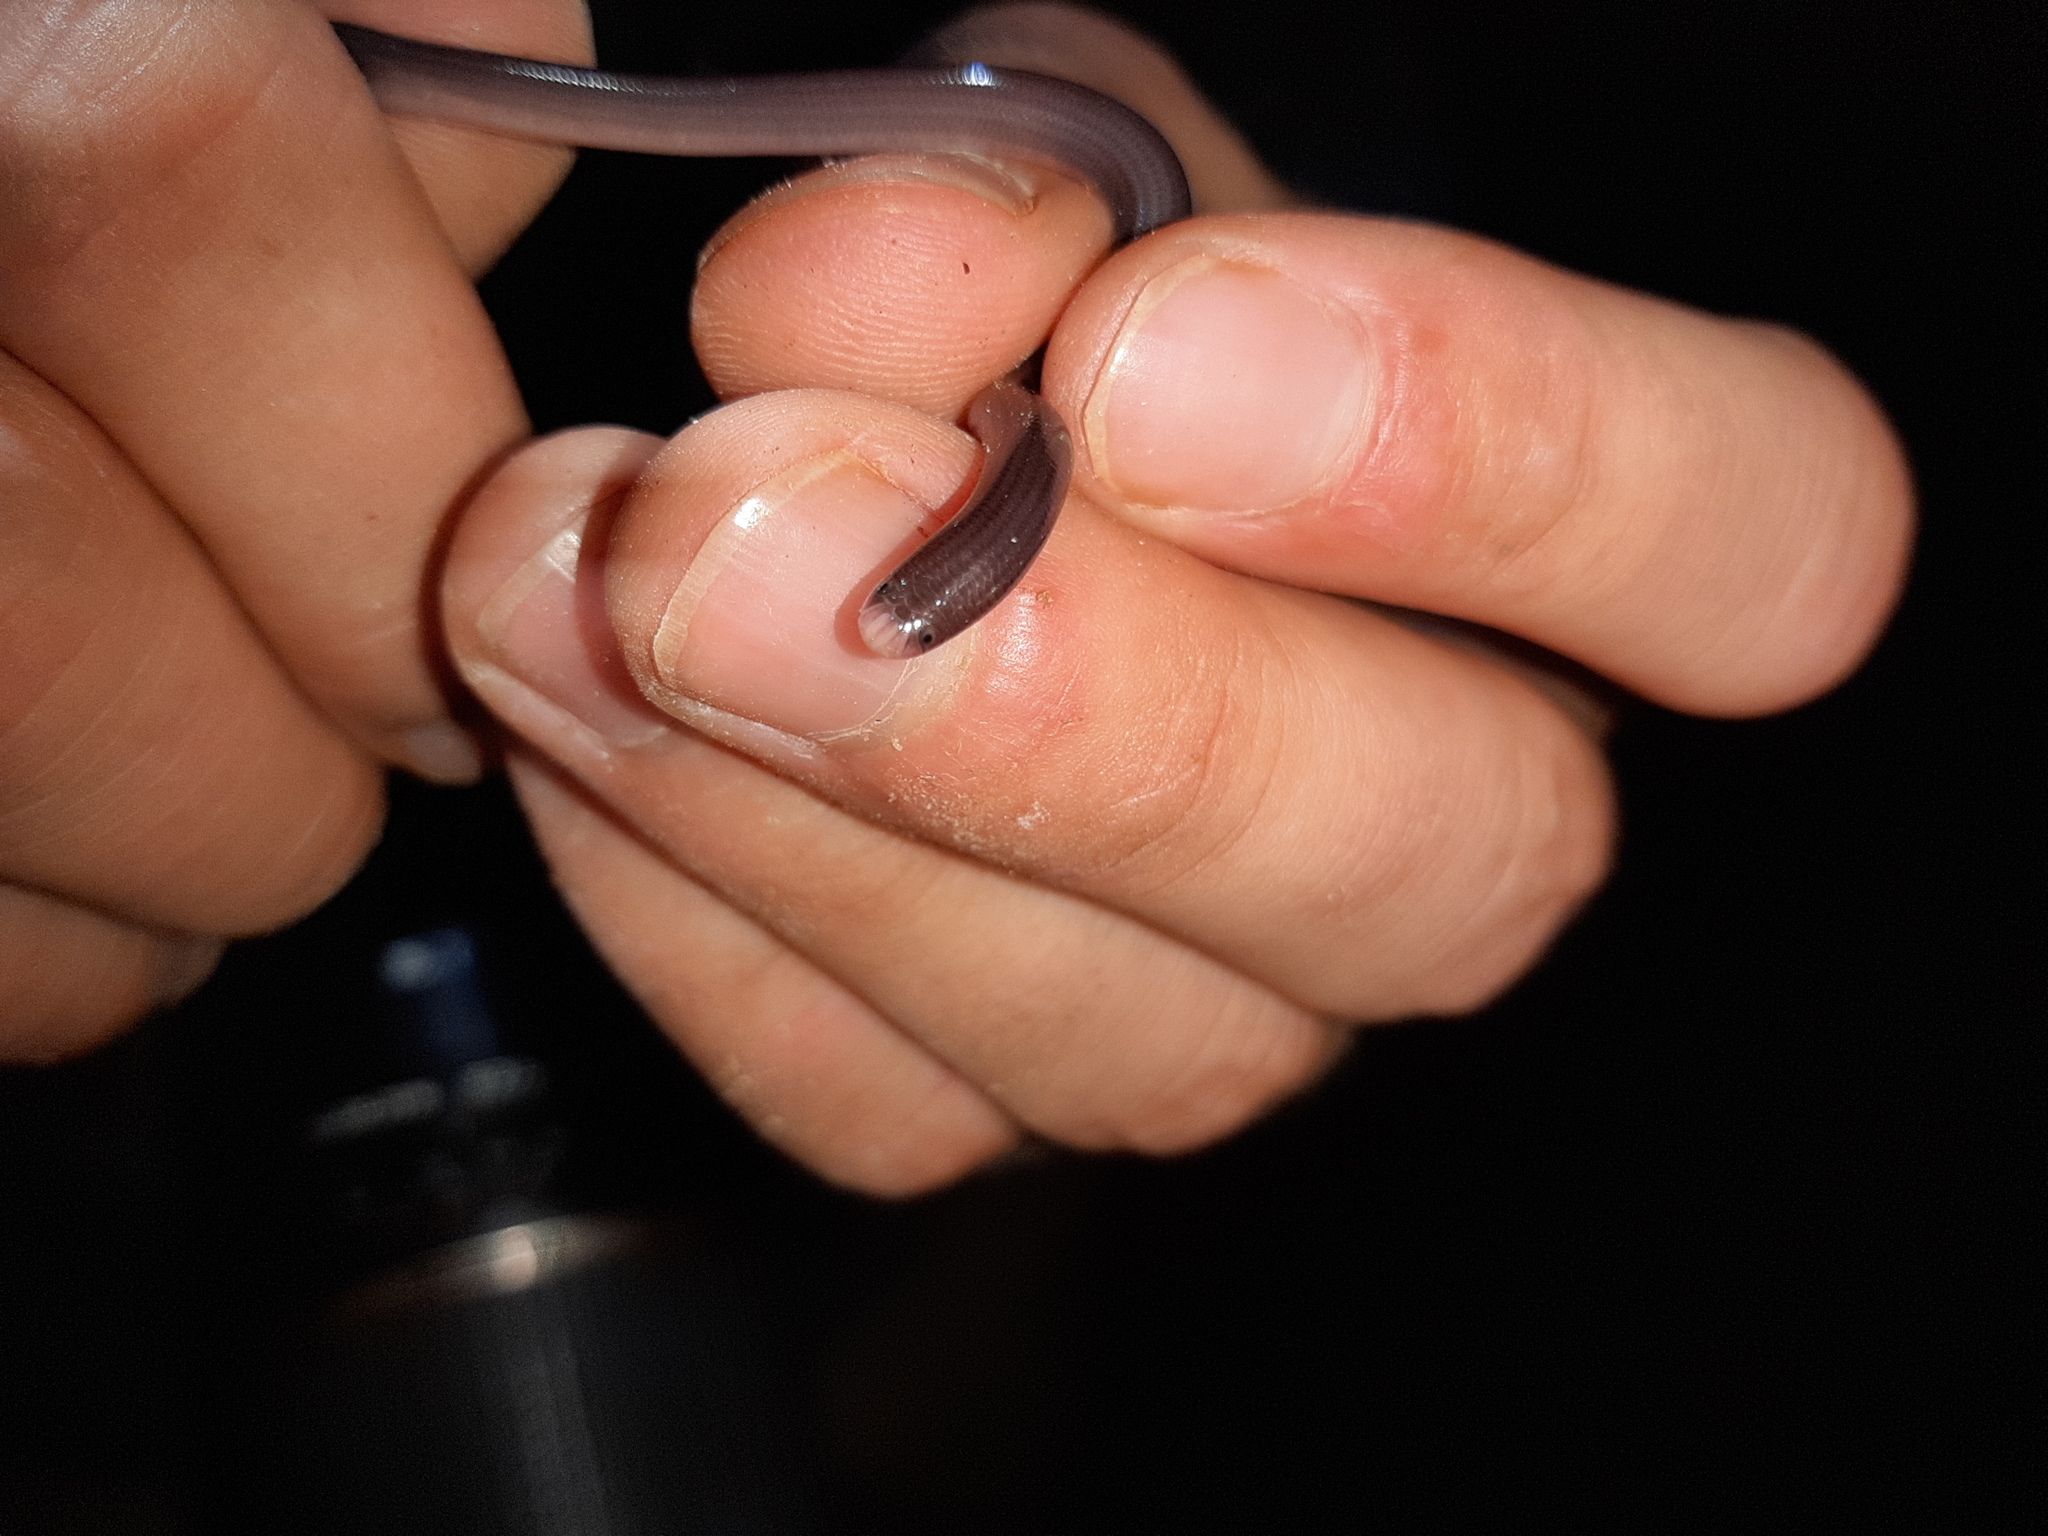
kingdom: Animalia
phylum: Chordata
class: Squamata
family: Typhlopidae
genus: Amerotyphlops
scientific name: Amerotyphlops brongersmianus
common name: Brongersma's worm snake
